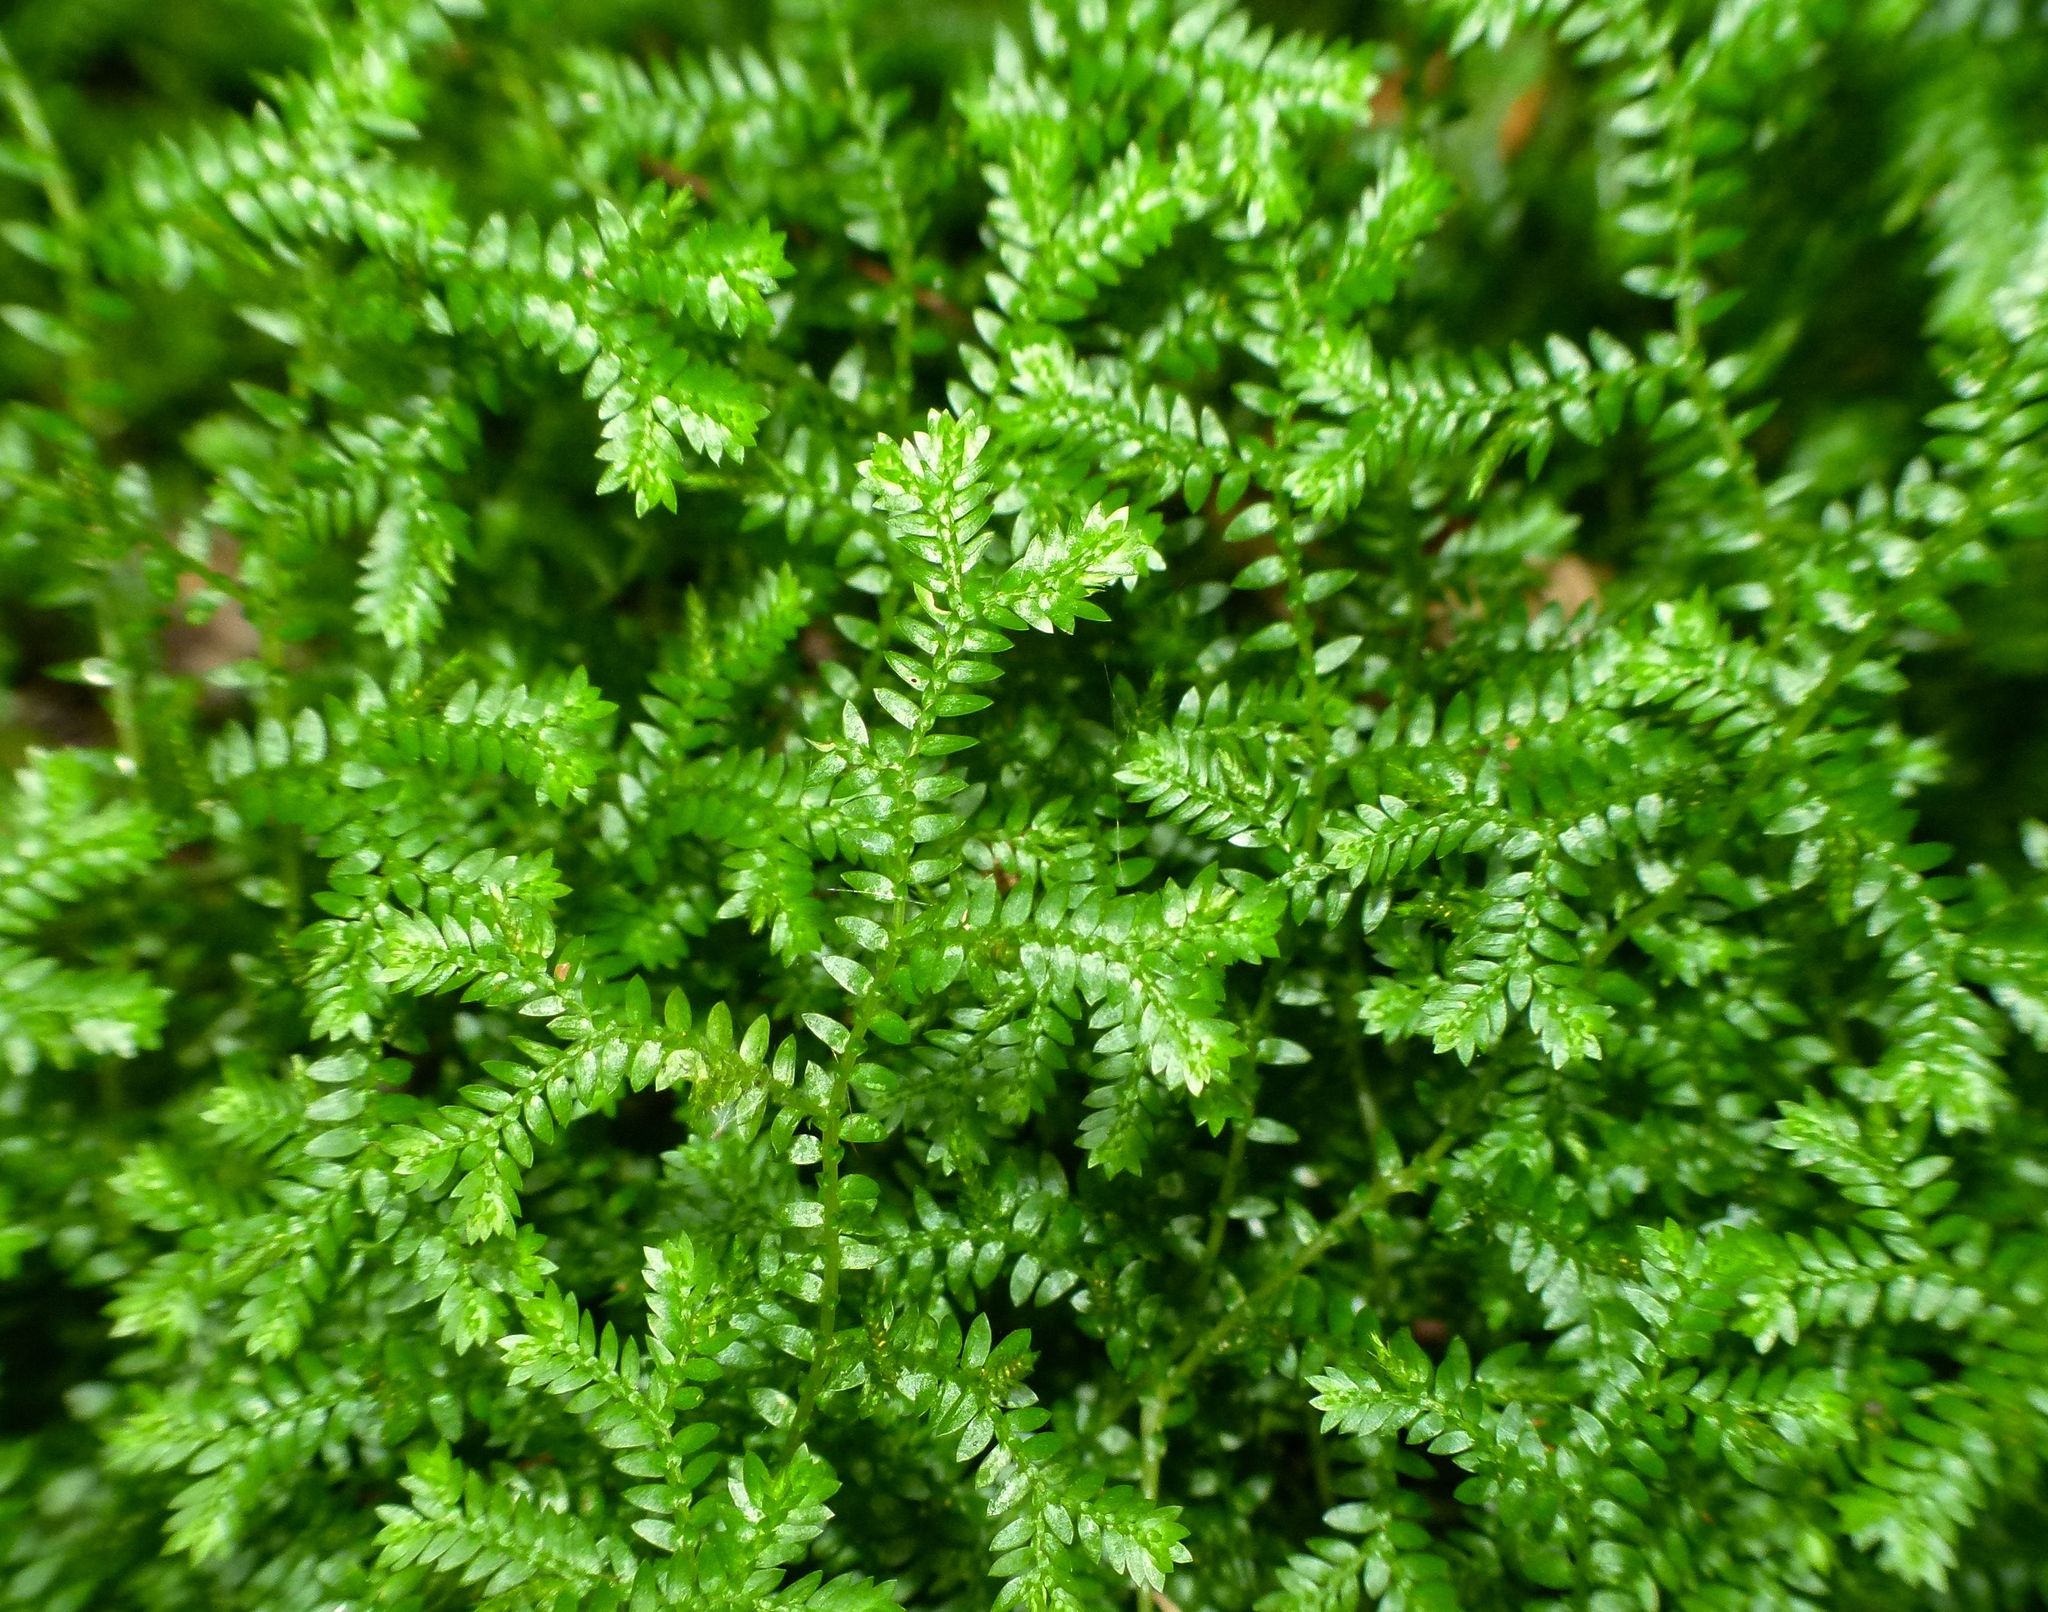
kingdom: Plantae
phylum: Tracheophyta
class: Lycopodiopsida
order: Selaginellales
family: Selaginellaceae
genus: Selaginella
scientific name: Selaginella kraussiana
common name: Krauss' spikemoss
